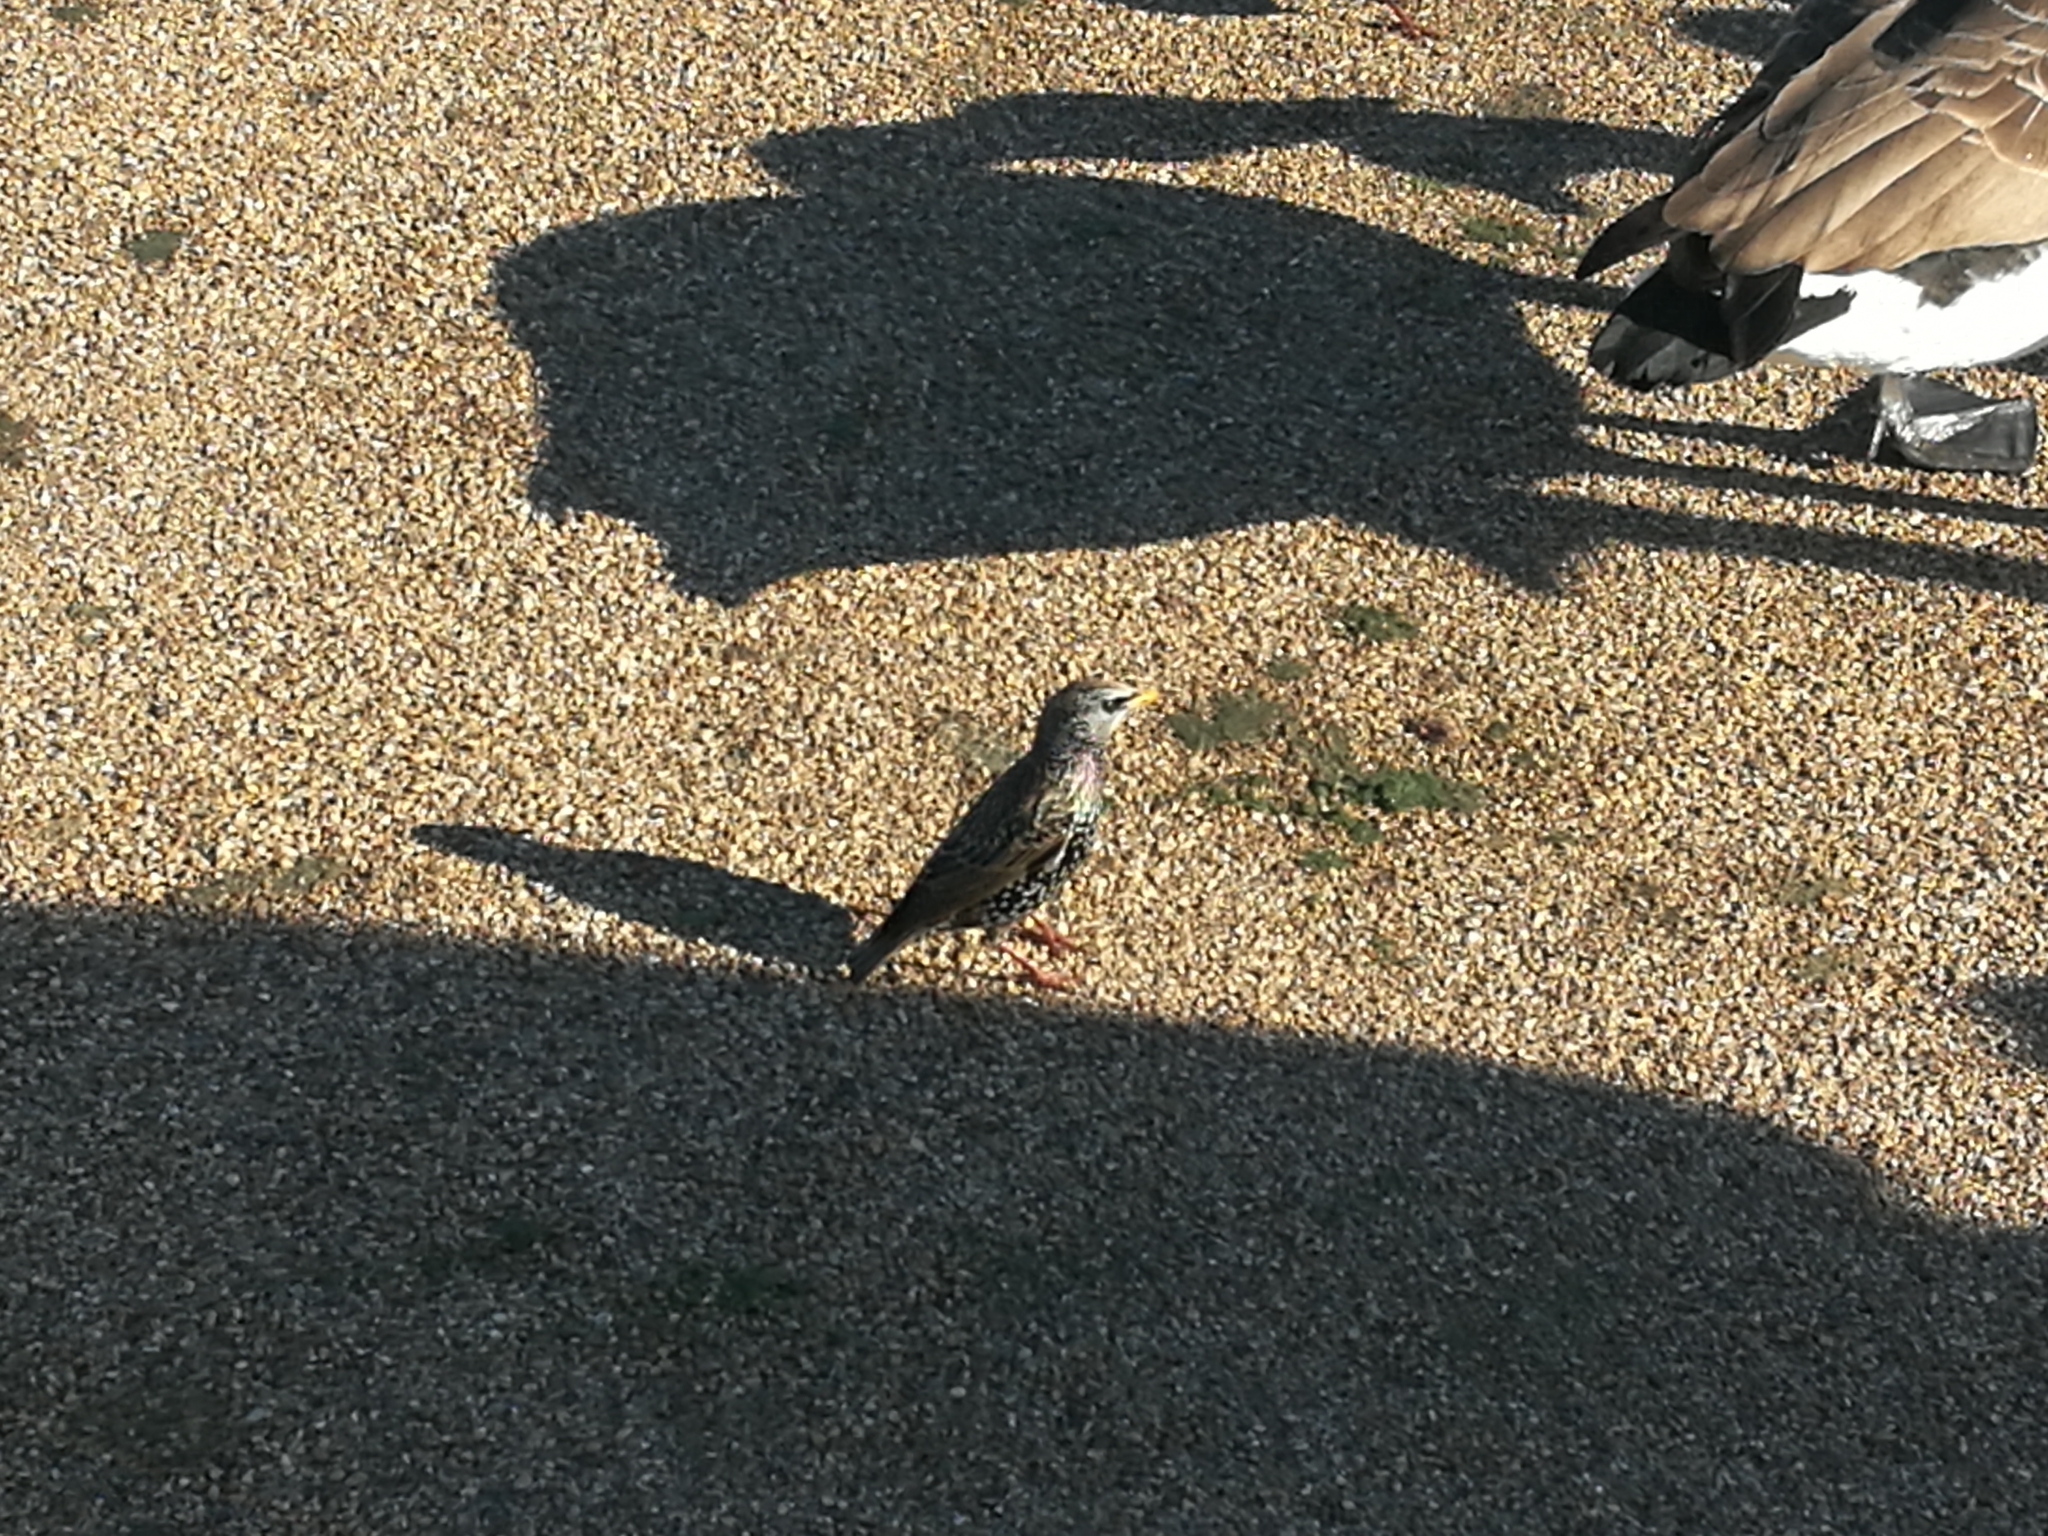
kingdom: Animalia
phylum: Chordata
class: Aves
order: Passeriformes
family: Sturnidae
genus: Sturnus
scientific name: Sturnus vulgaris
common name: Common starling
